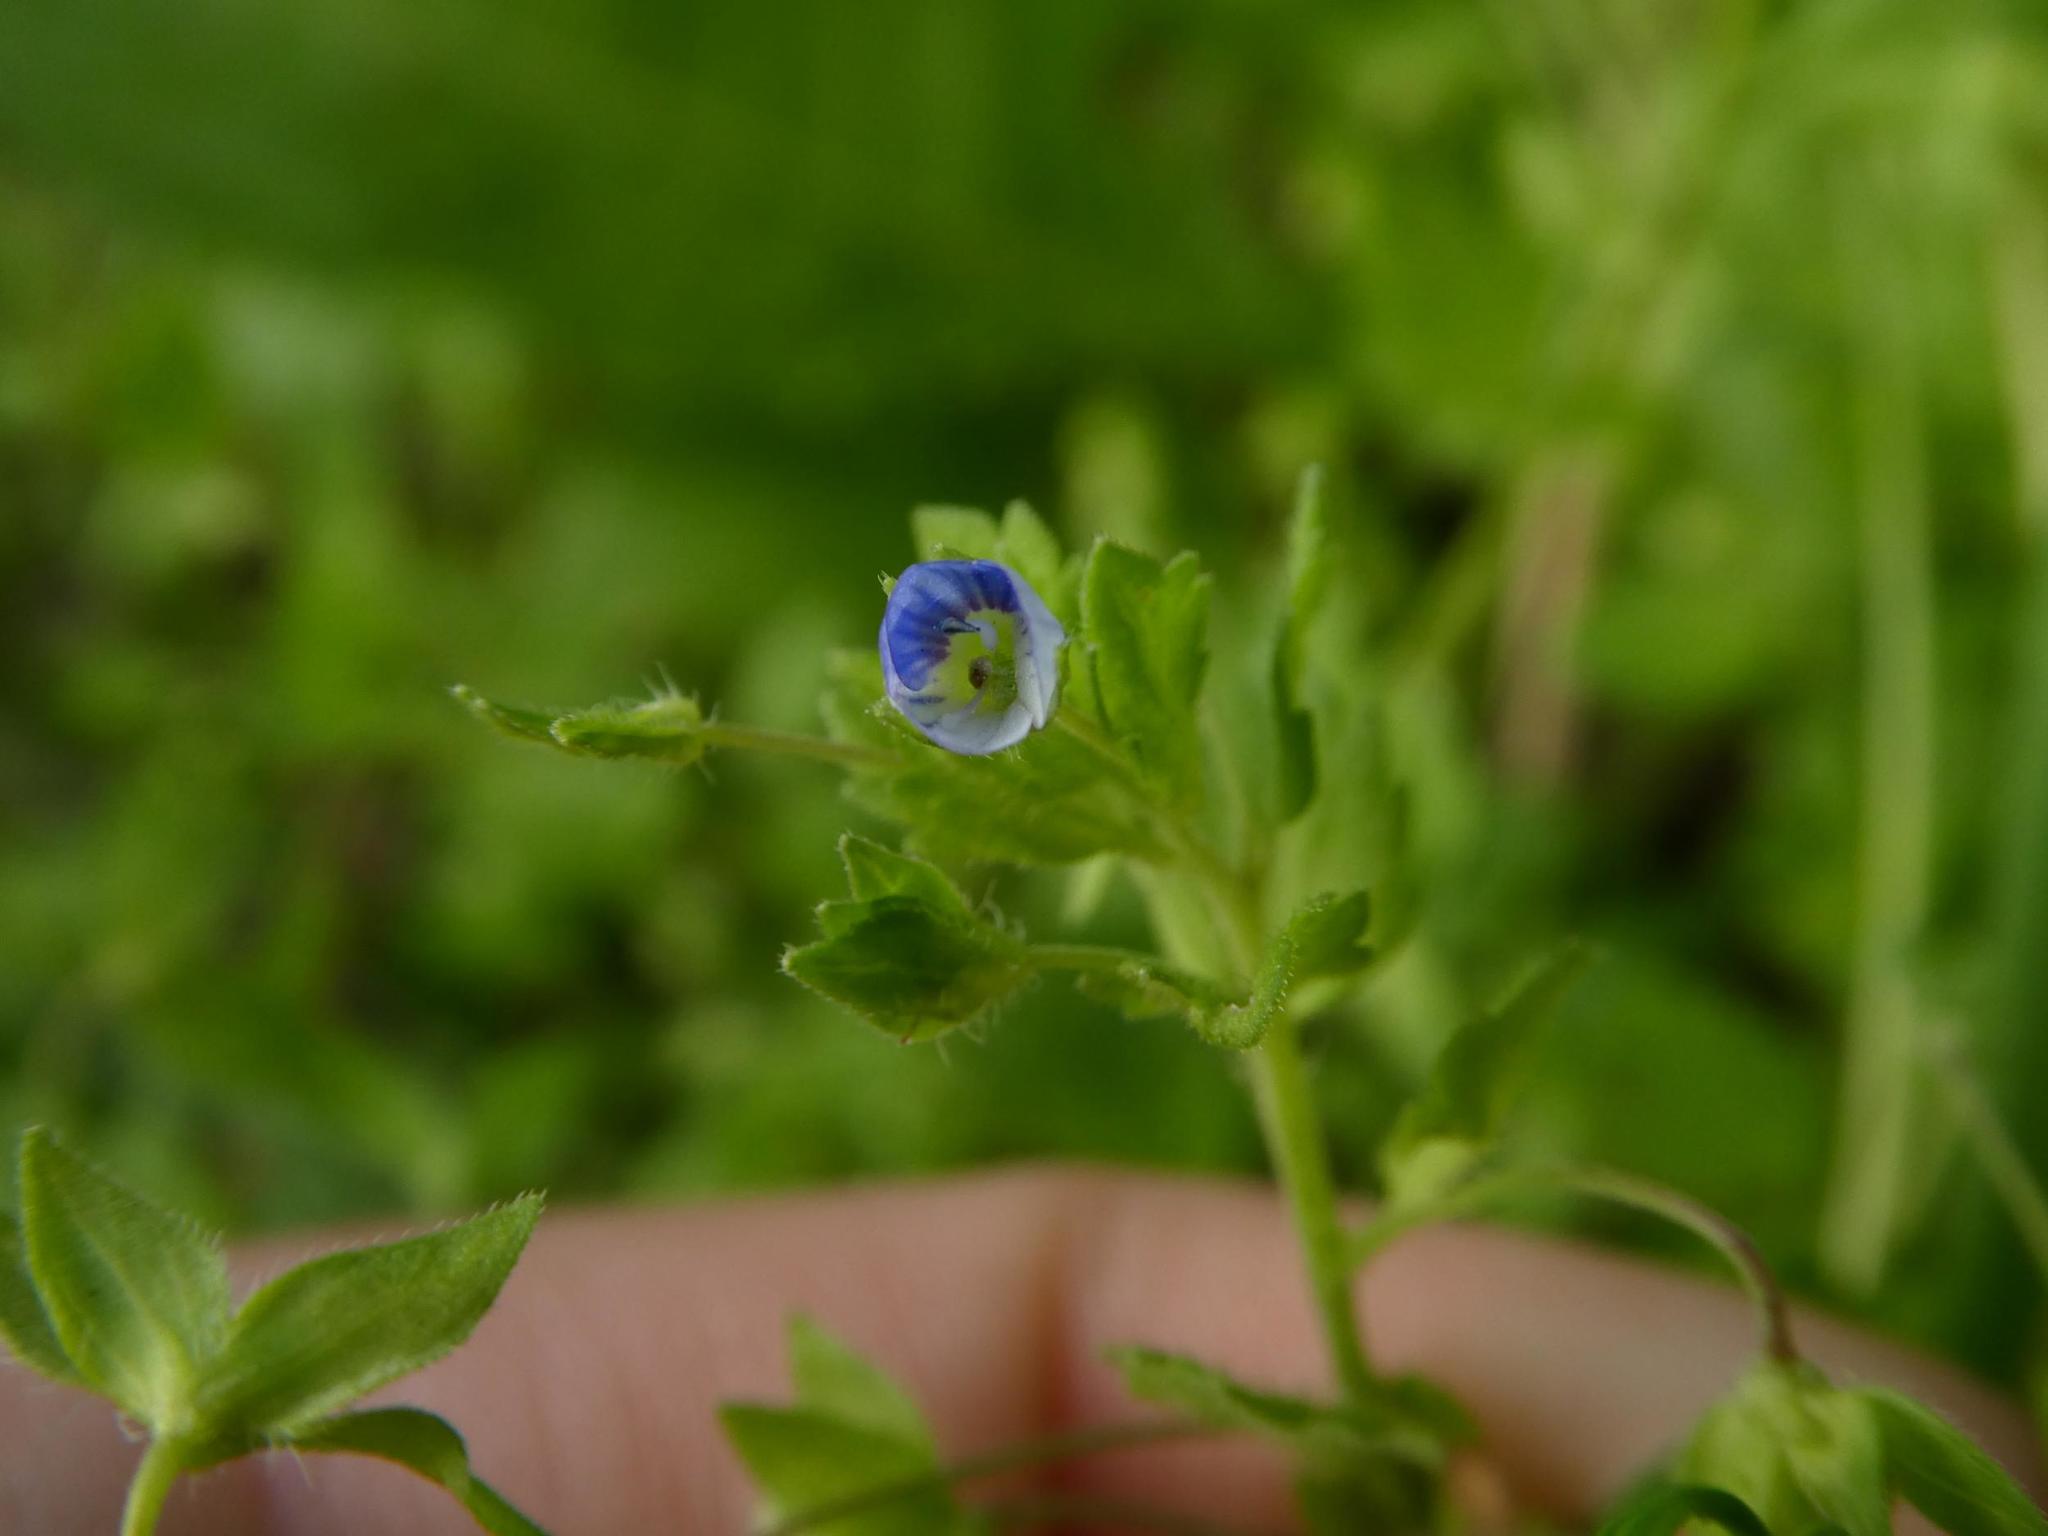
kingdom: Plantae
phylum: Tracheophyta
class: Magnoliopsida
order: Lamiales
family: Plantaginaceae
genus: Veronica
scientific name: Veronica persica
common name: Common field-speedwell
